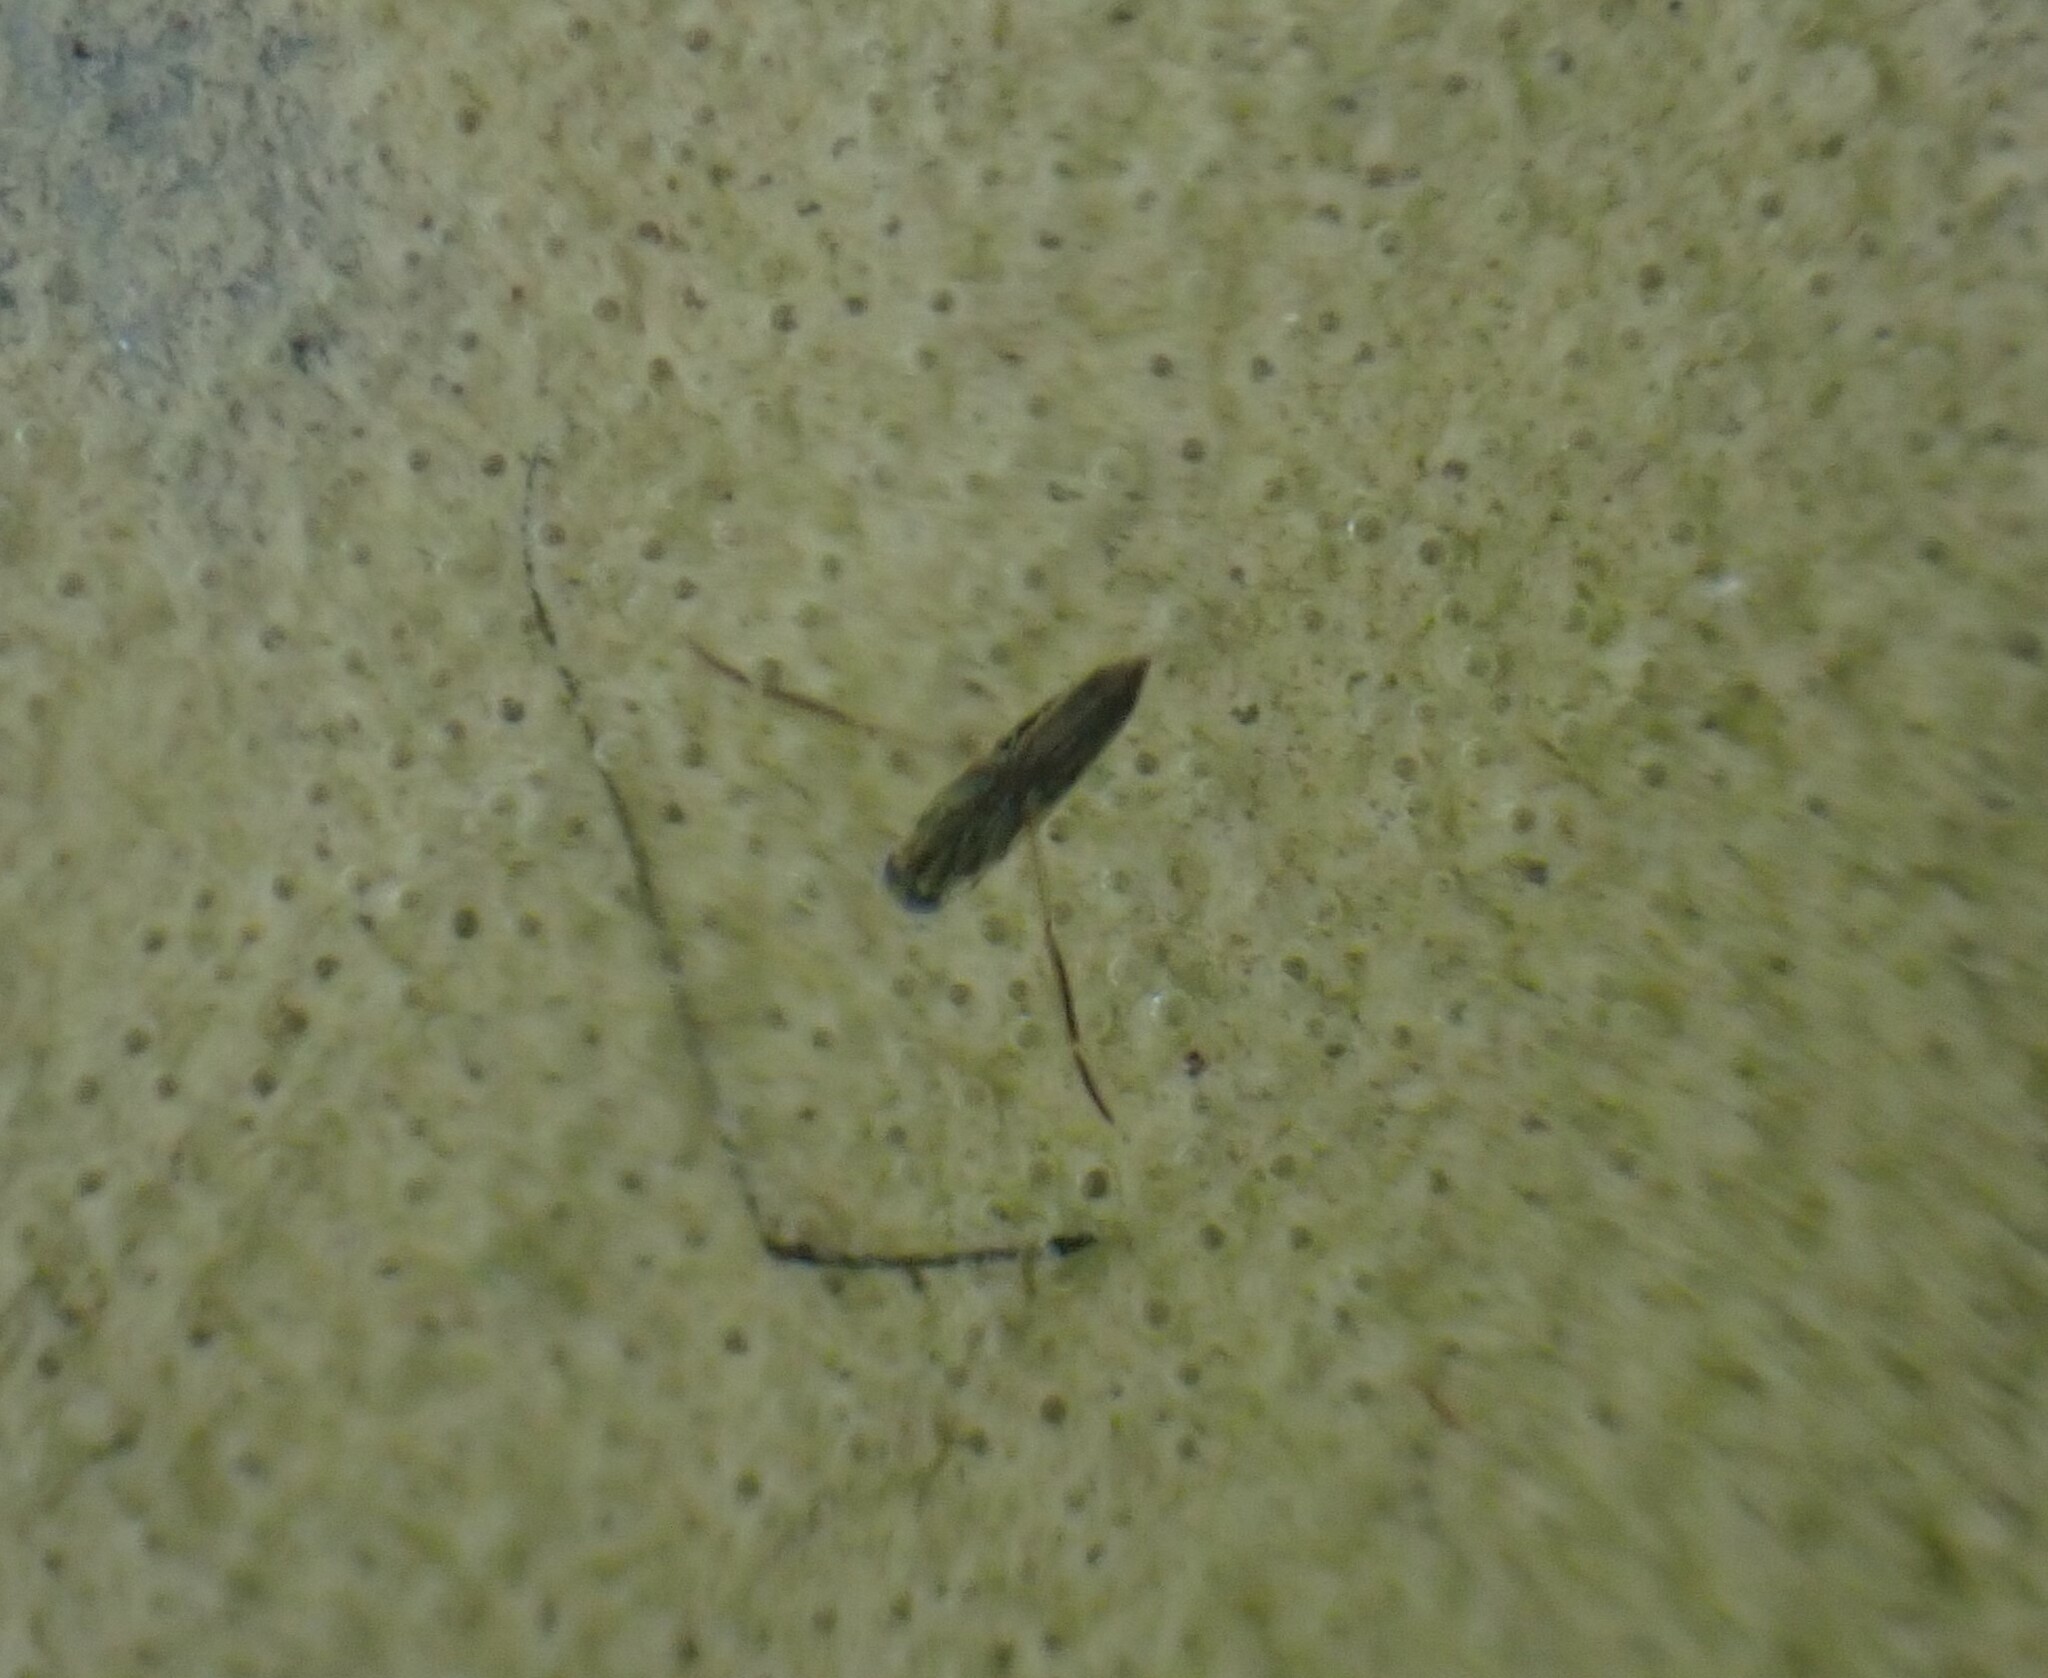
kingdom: Animalia
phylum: Arthropoda
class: Insecta
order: Hemiptera
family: Notonectidae
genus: Anisops
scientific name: Anisops sardeus
